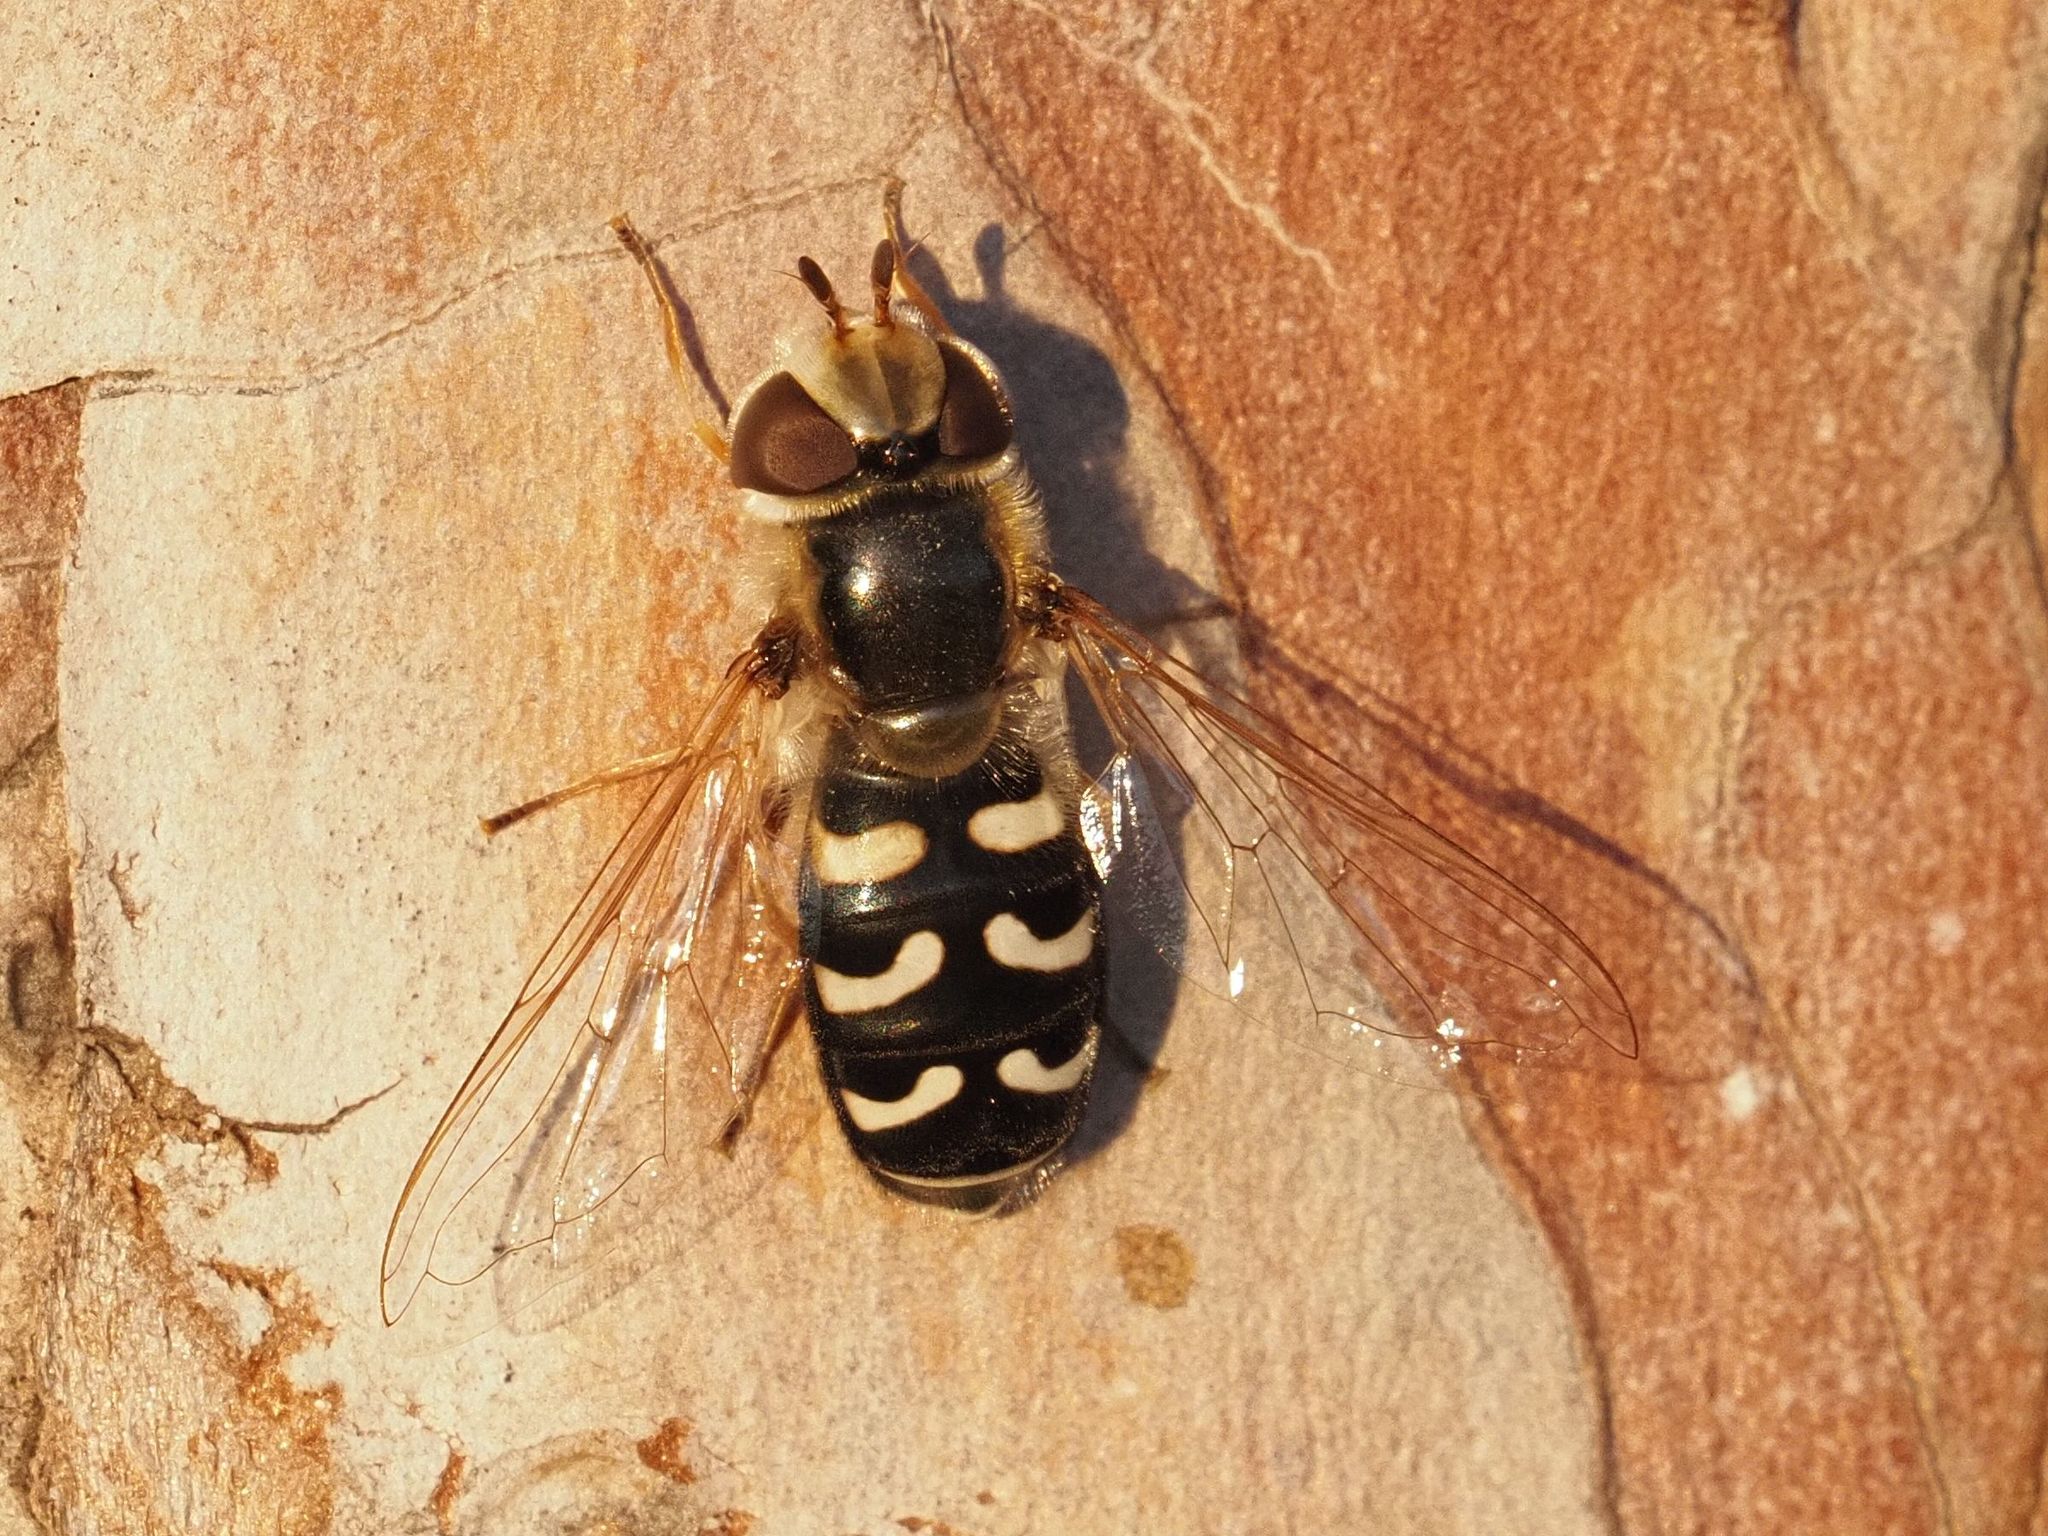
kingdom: Animalia
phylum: Arthropoda
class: Insecta
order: Diptera
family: Syrphidae
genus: Scaeva
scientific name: Scaeva pyrastri
